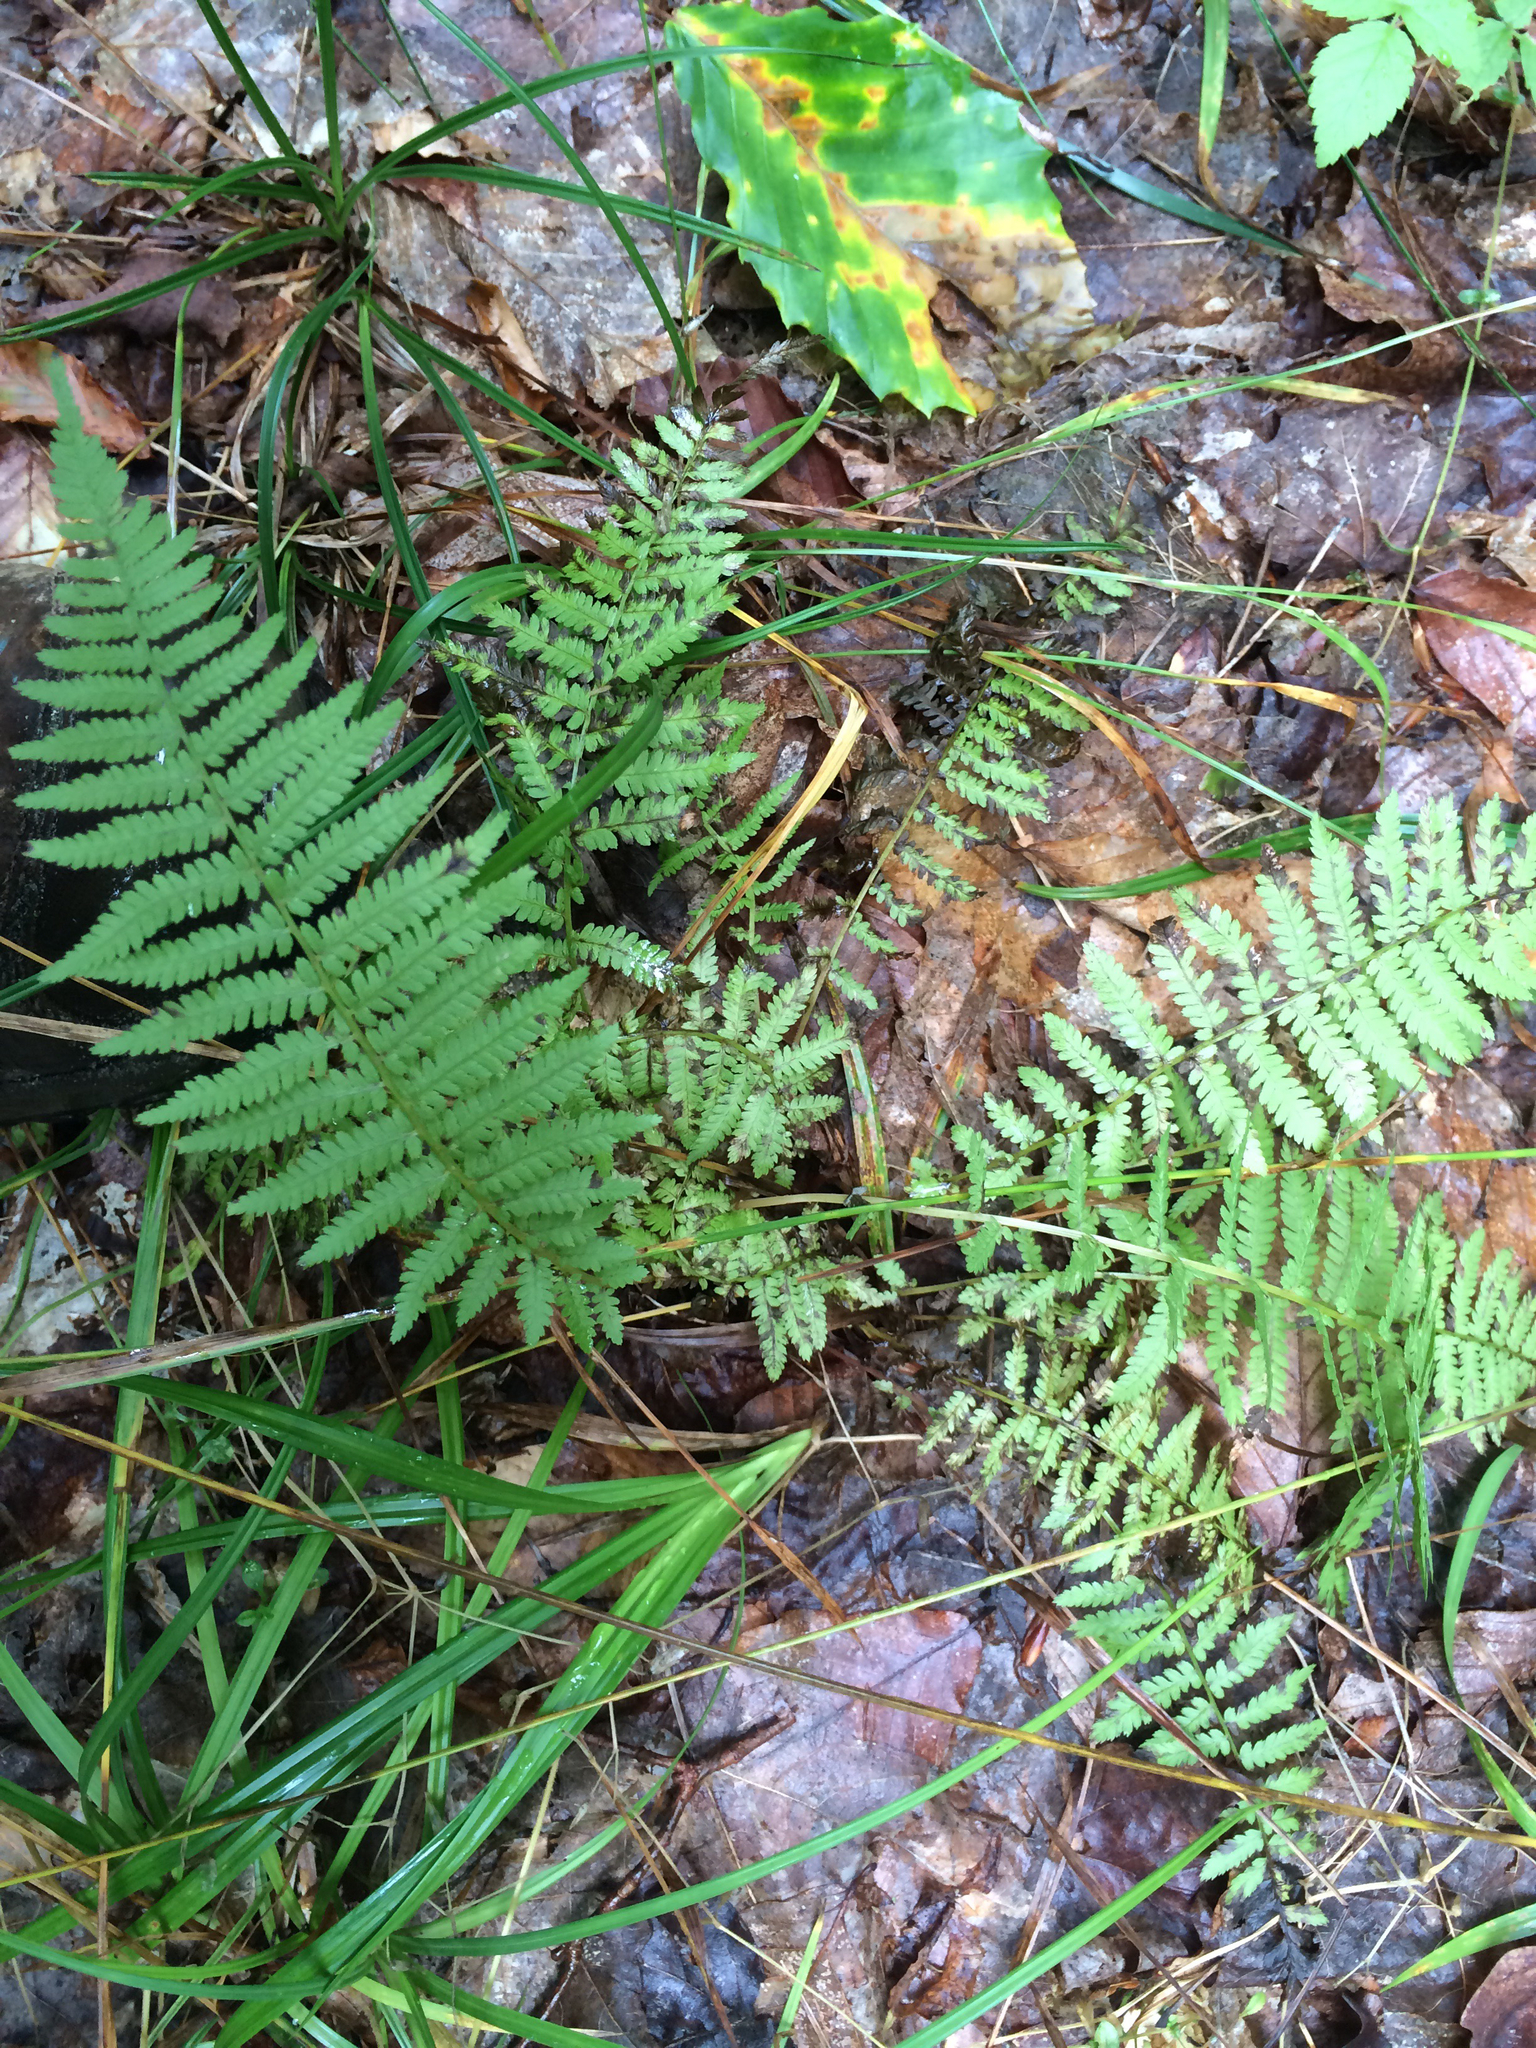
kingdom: Plantae
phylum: Tracheophyta
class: Polypodiopsida
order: Polypodiales
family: Thelypteridaceae
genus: Amauropelta
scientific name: Amauropelta noveboracensis
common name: New york fern
